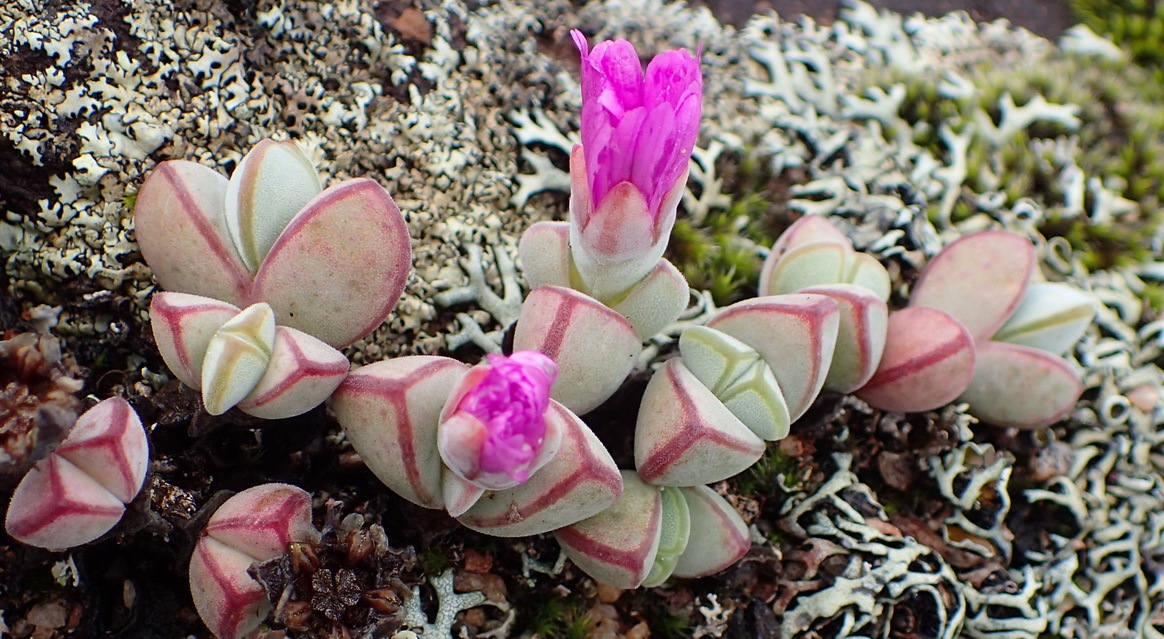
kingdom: Plantae
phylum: Tracheophyta
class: Magnoliopsida
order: Caryophyllales
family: Aizoaceae
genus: Braunsia
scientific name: Braunsia maximiliani
